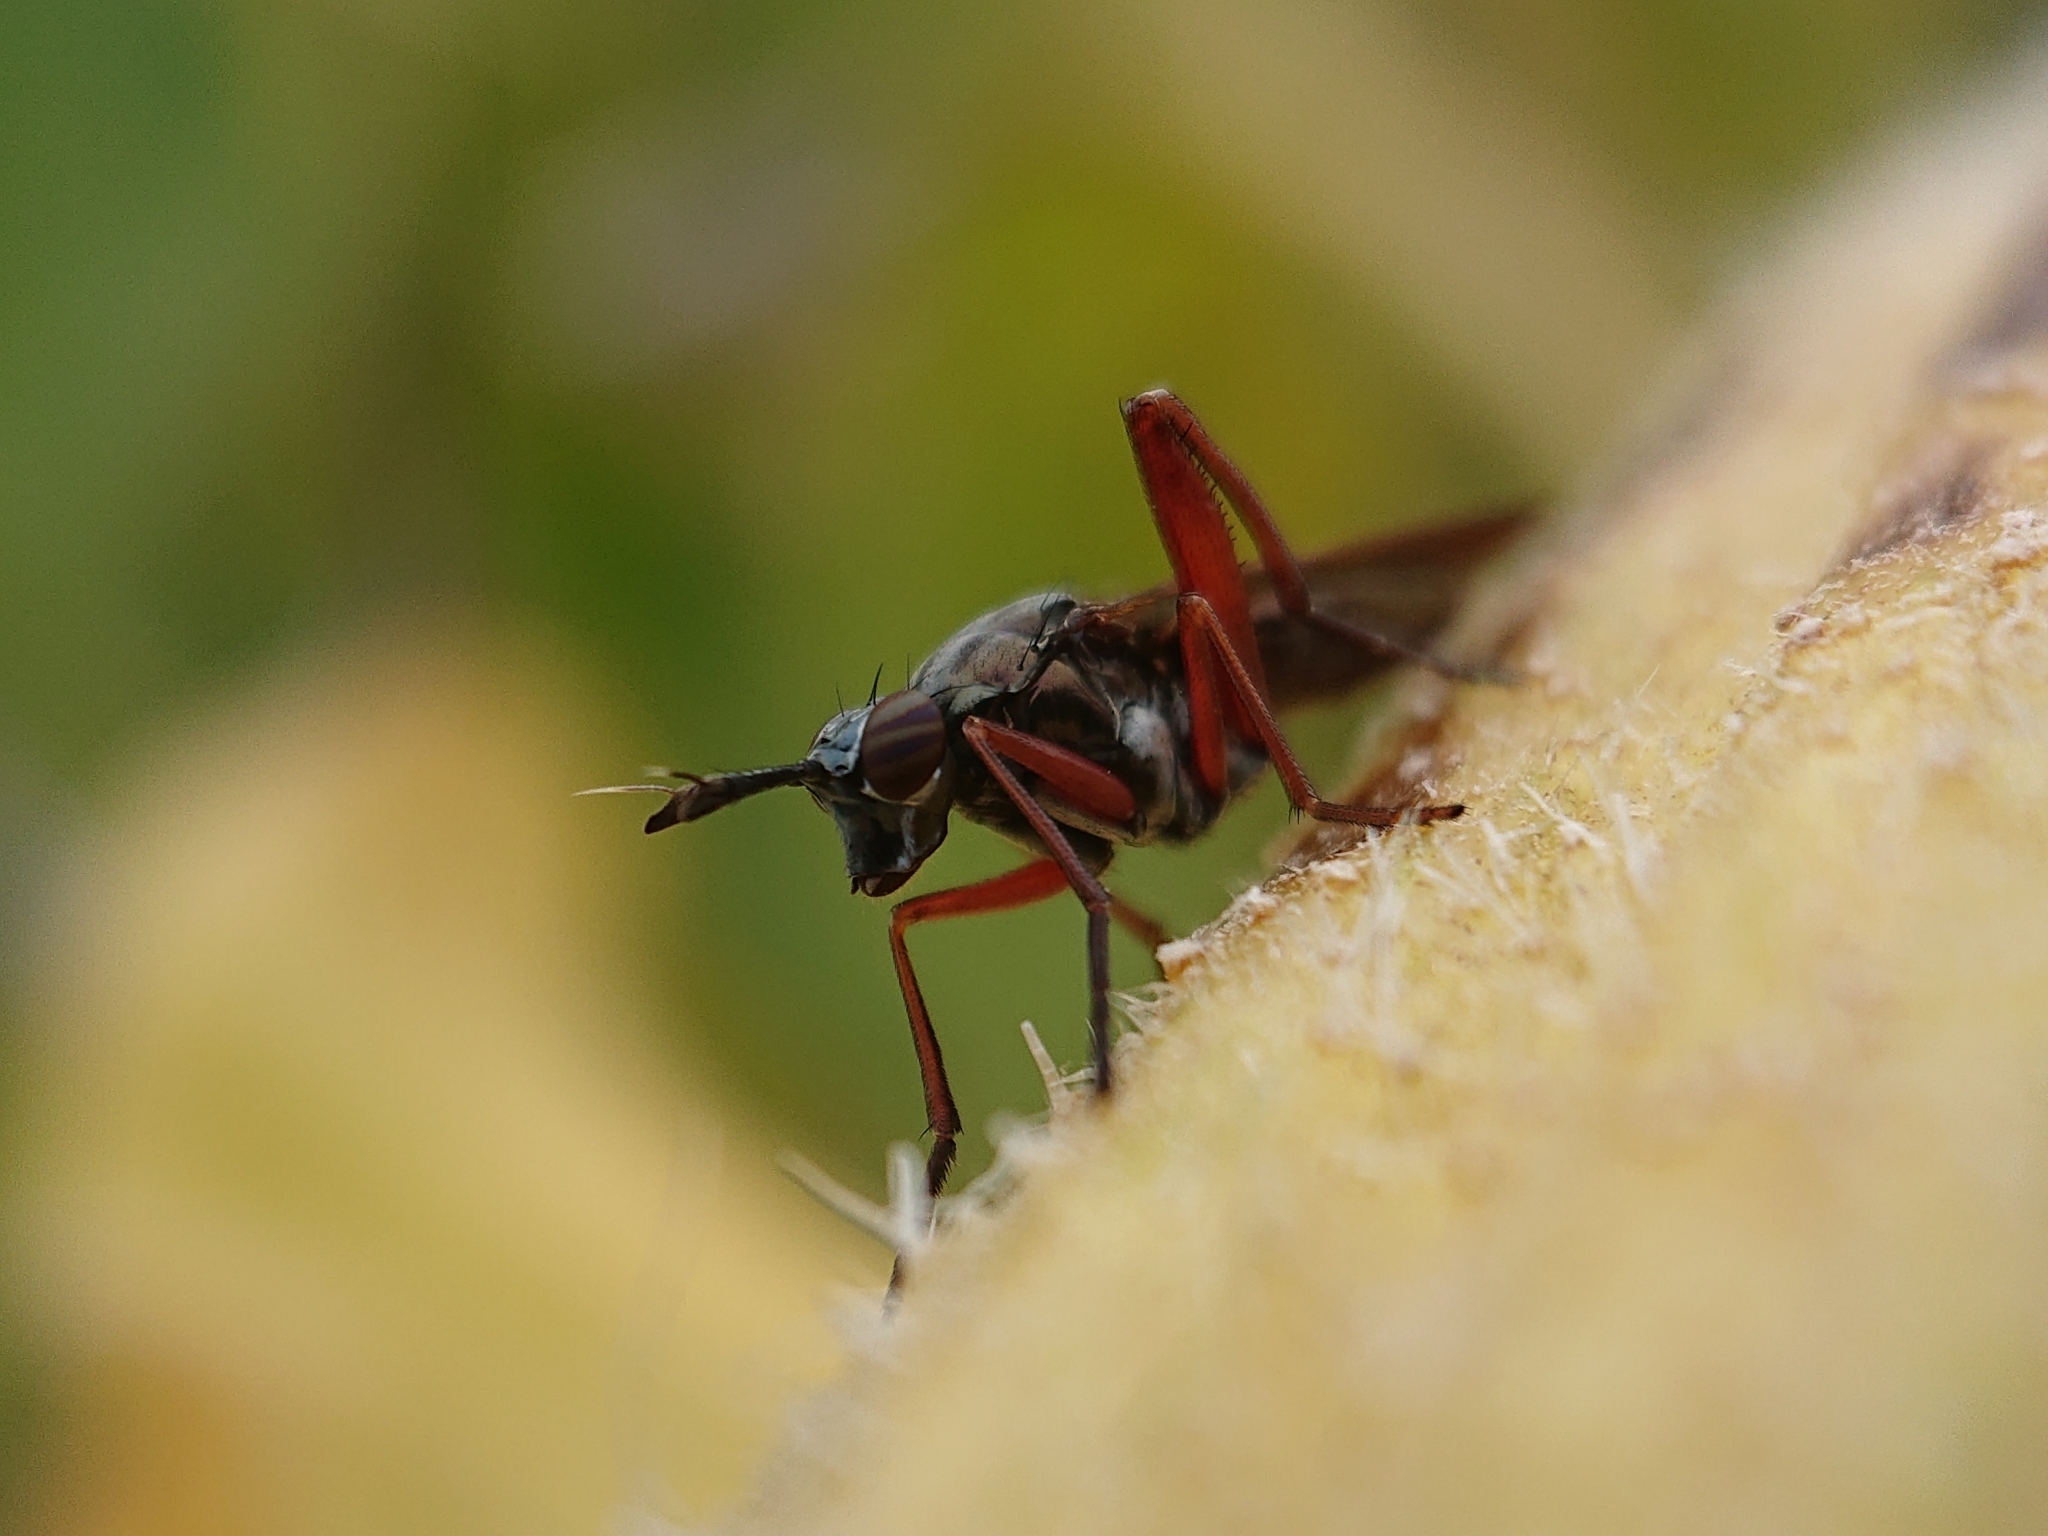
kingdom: Animalia
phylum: Arthropoda
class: Insecta
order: Diptera
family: Sciomyzidae
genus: Sepedon
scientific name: Sepedon sphegea
